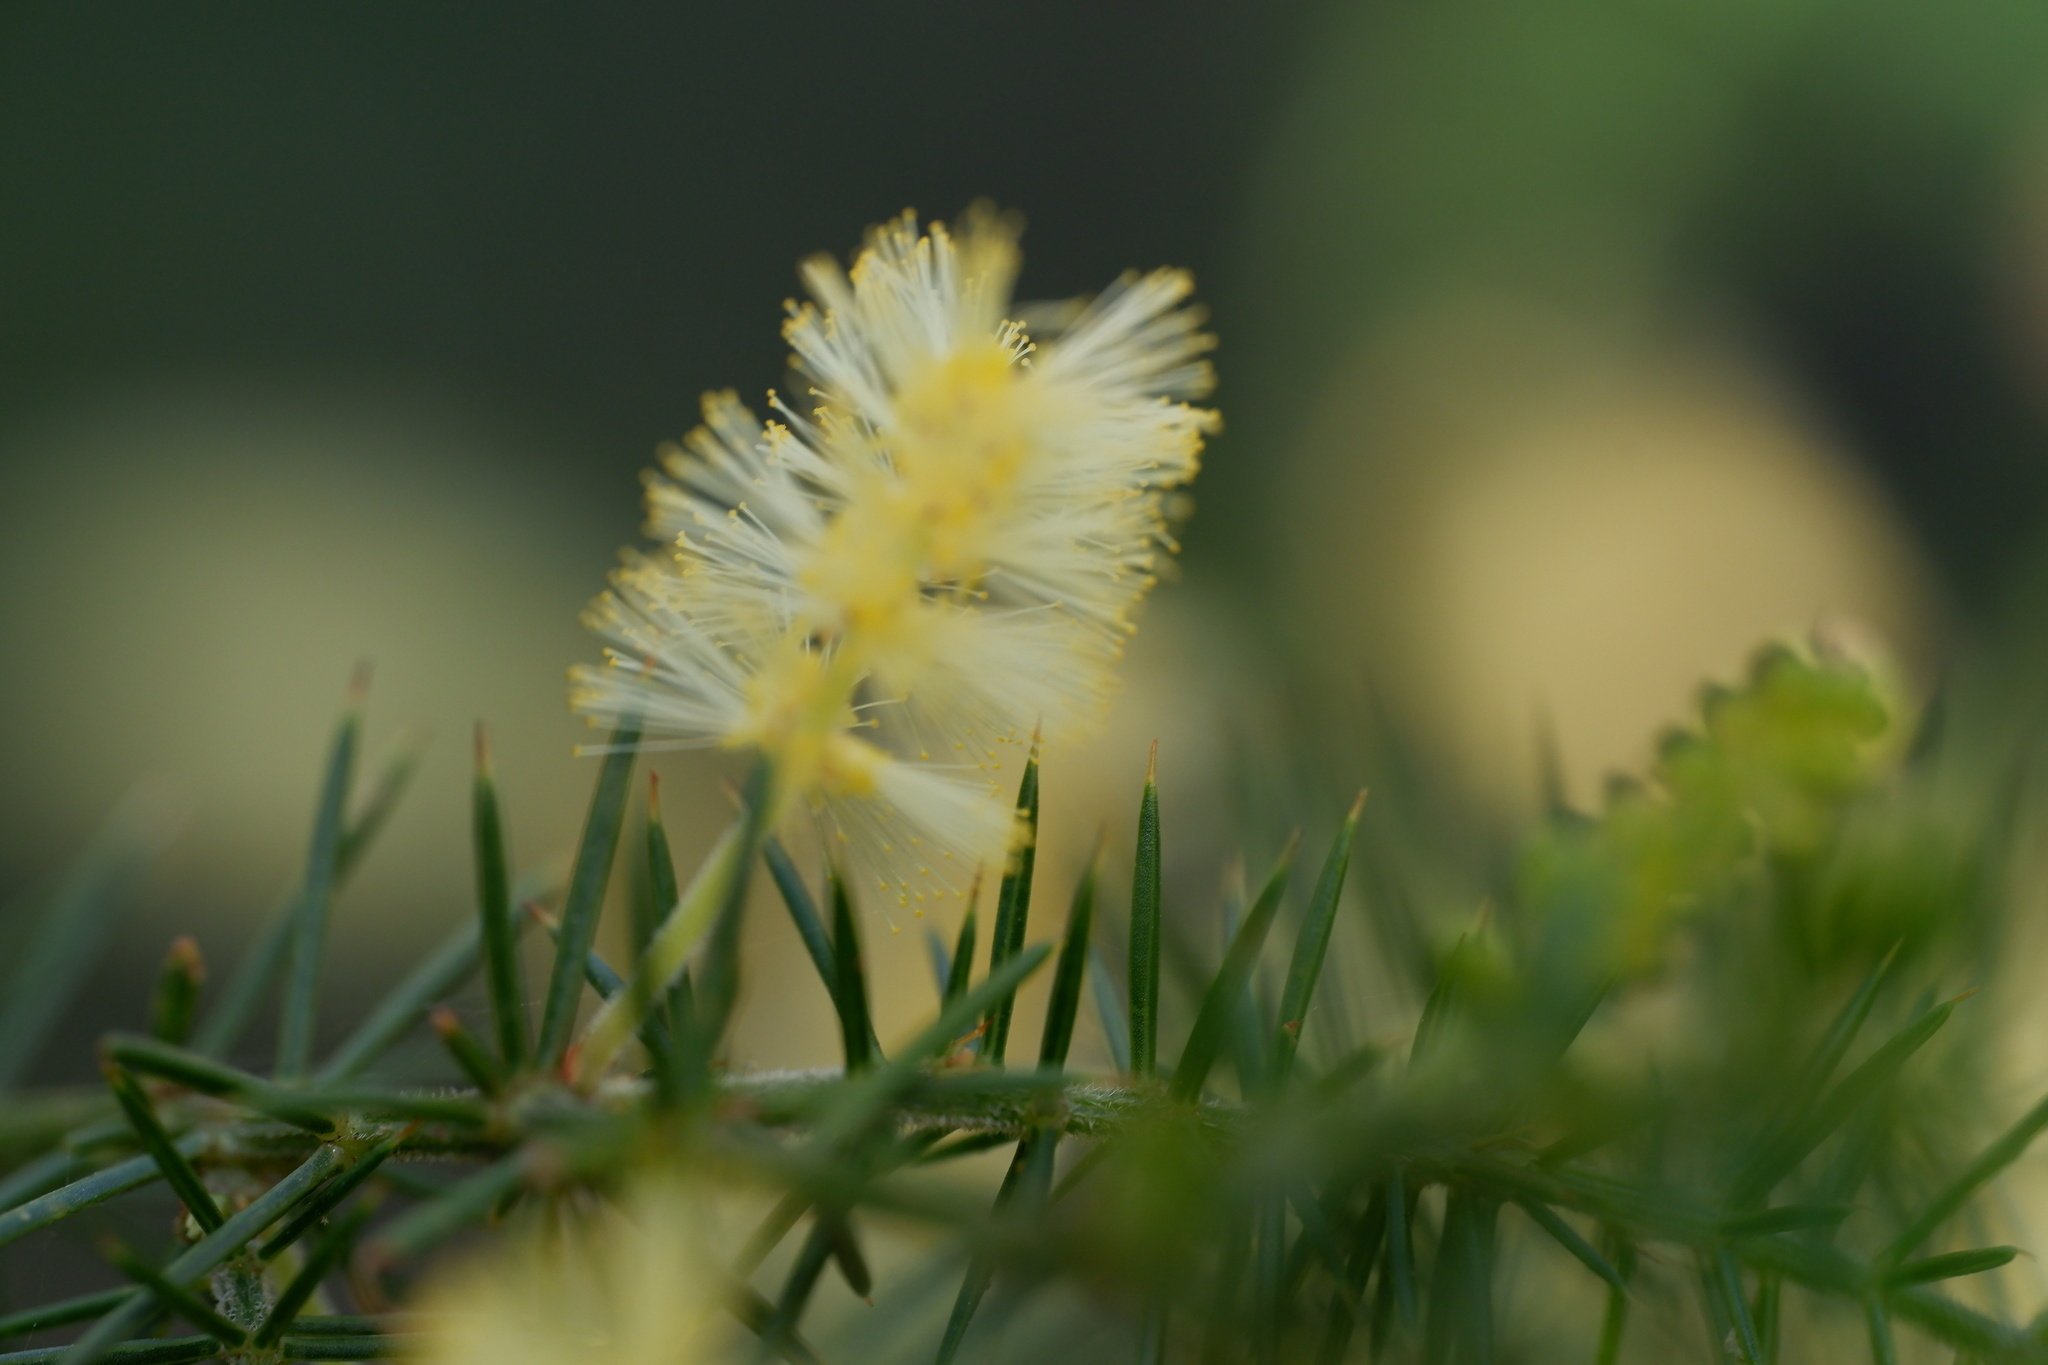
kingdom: Plantae
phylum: Tracheophyta
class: Magnoliopsida
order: Fabales
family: Fabaceae
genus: Acacia
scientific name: Acacia verticillata
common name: Prickly moses
